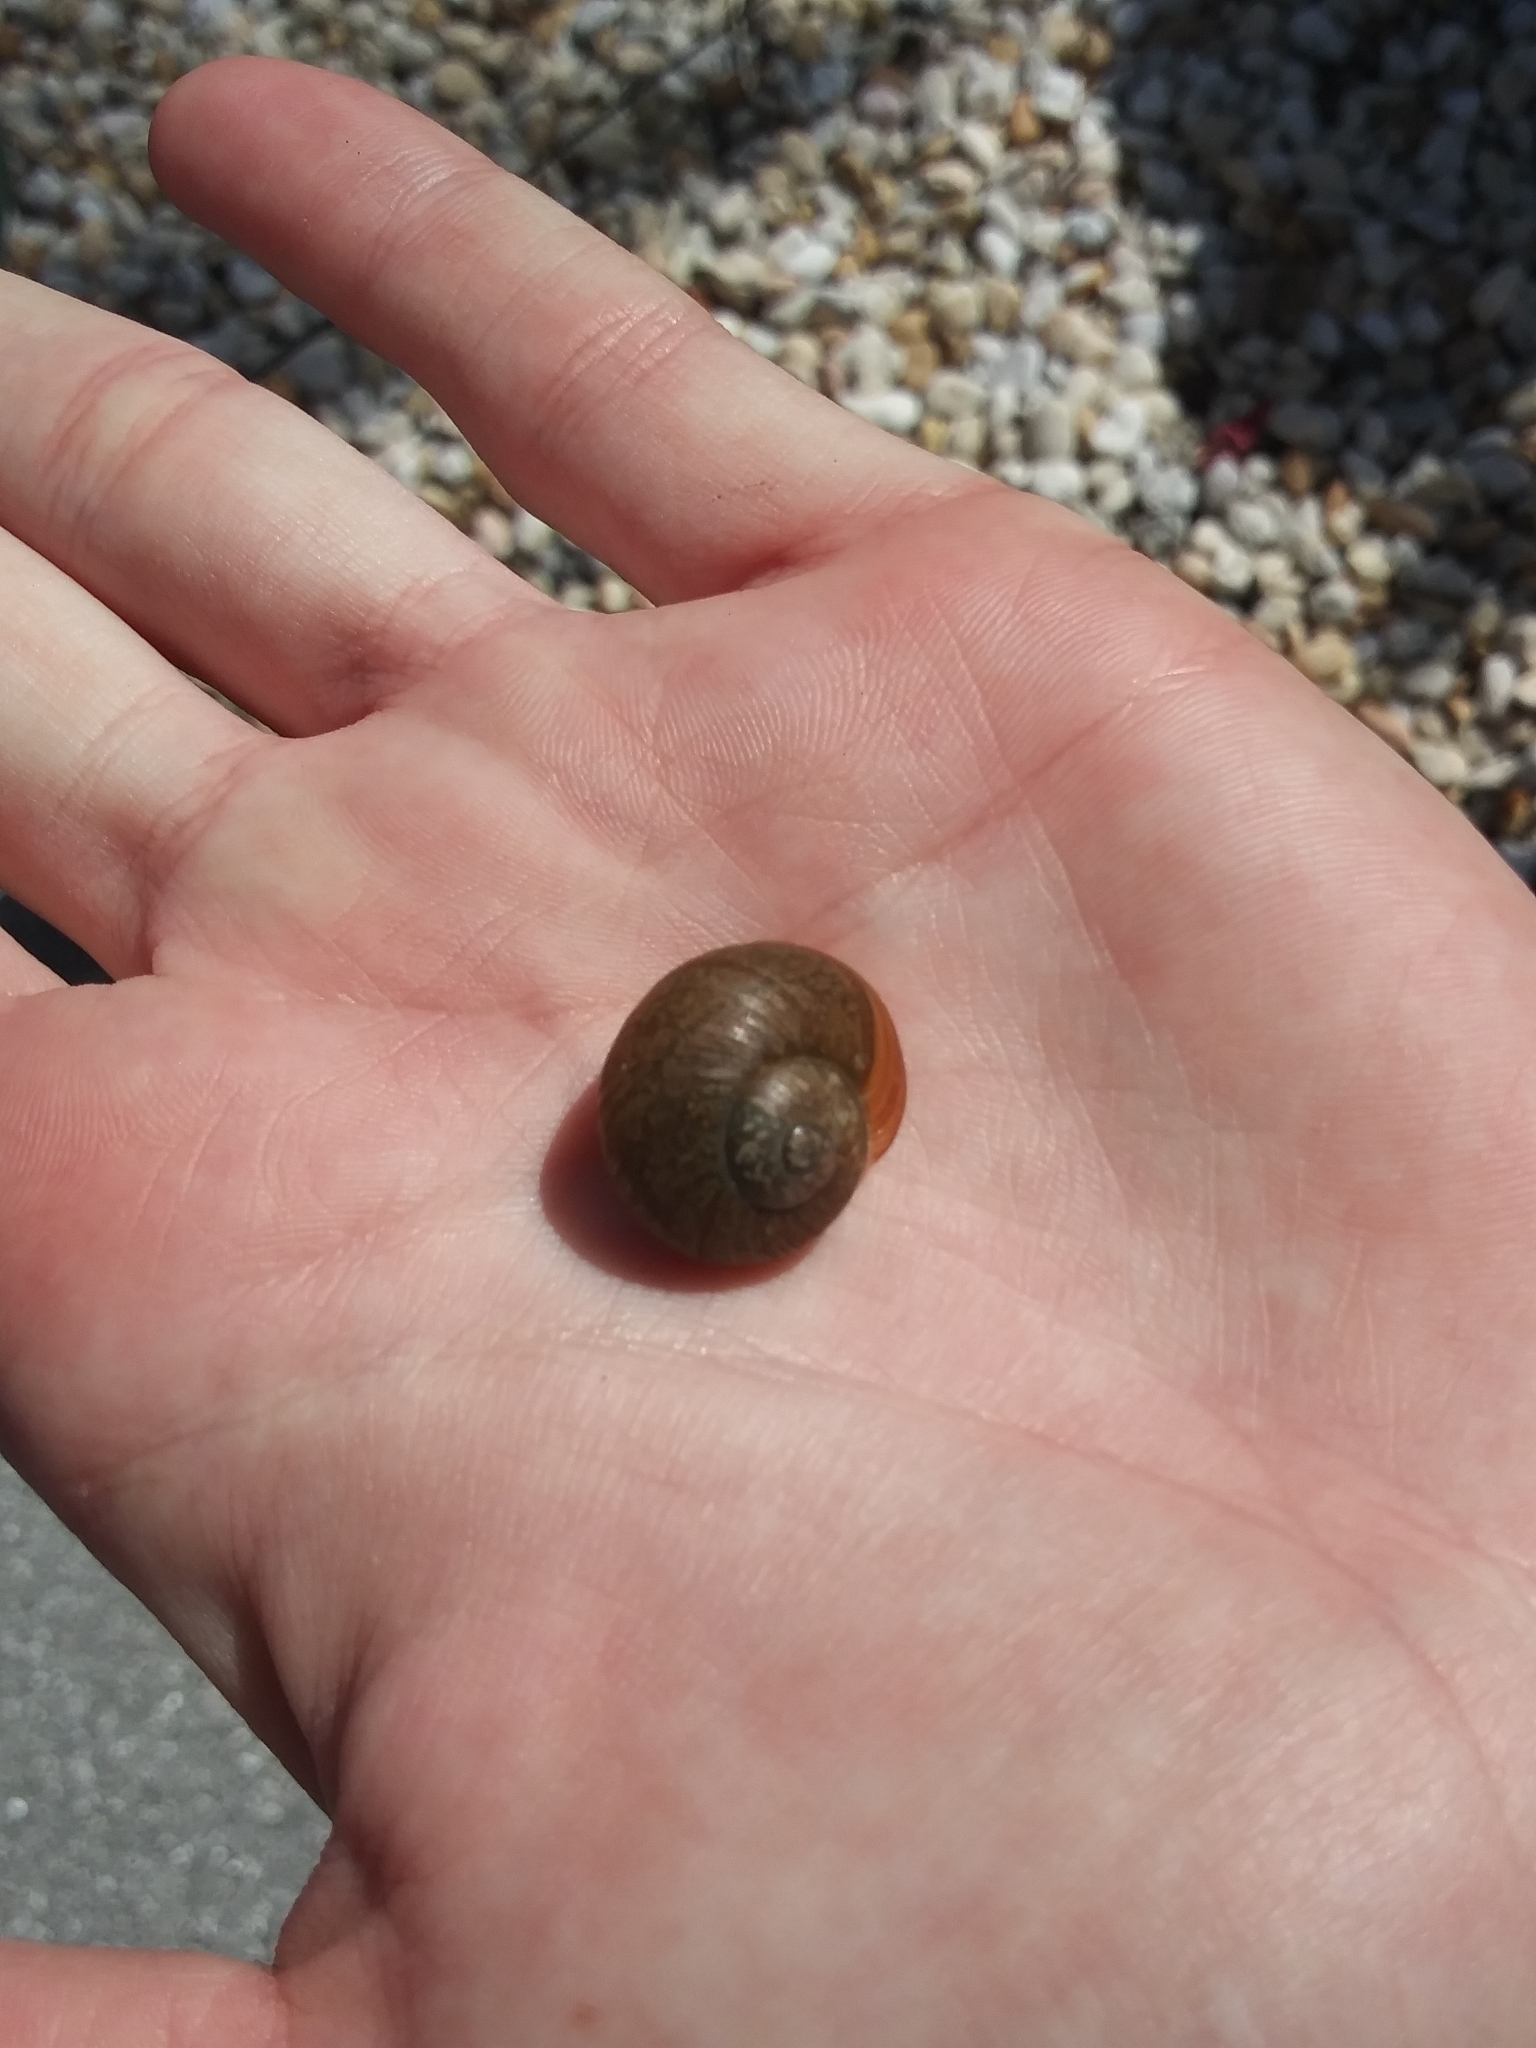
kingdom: Animalia
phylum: Mollusca
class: Gastropoda
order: Stylommatophora
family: Zachrysiidae
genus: Zachrysia
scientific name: Zachrysia provisoria
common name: Garden zachrysia
